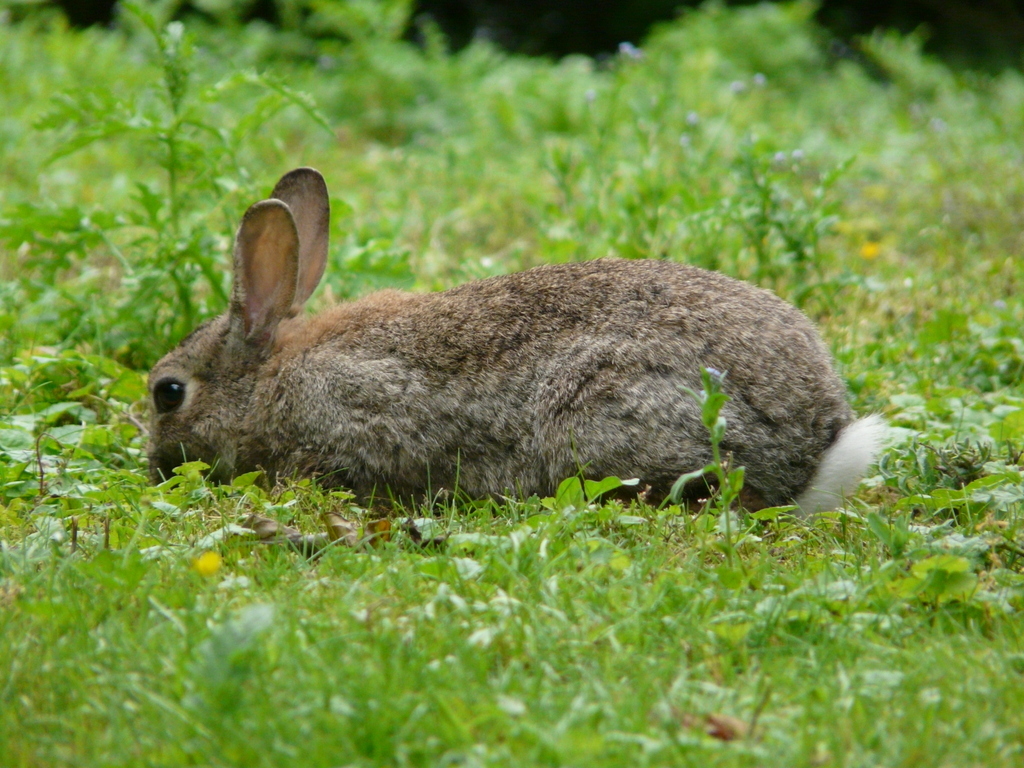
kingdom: Animalia
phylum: Chordata
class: Mammalia
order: Lagomorpha
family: Leporidae
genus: Oryctolagus
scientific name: Oryctolagus cuniculus
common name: European rabbit
